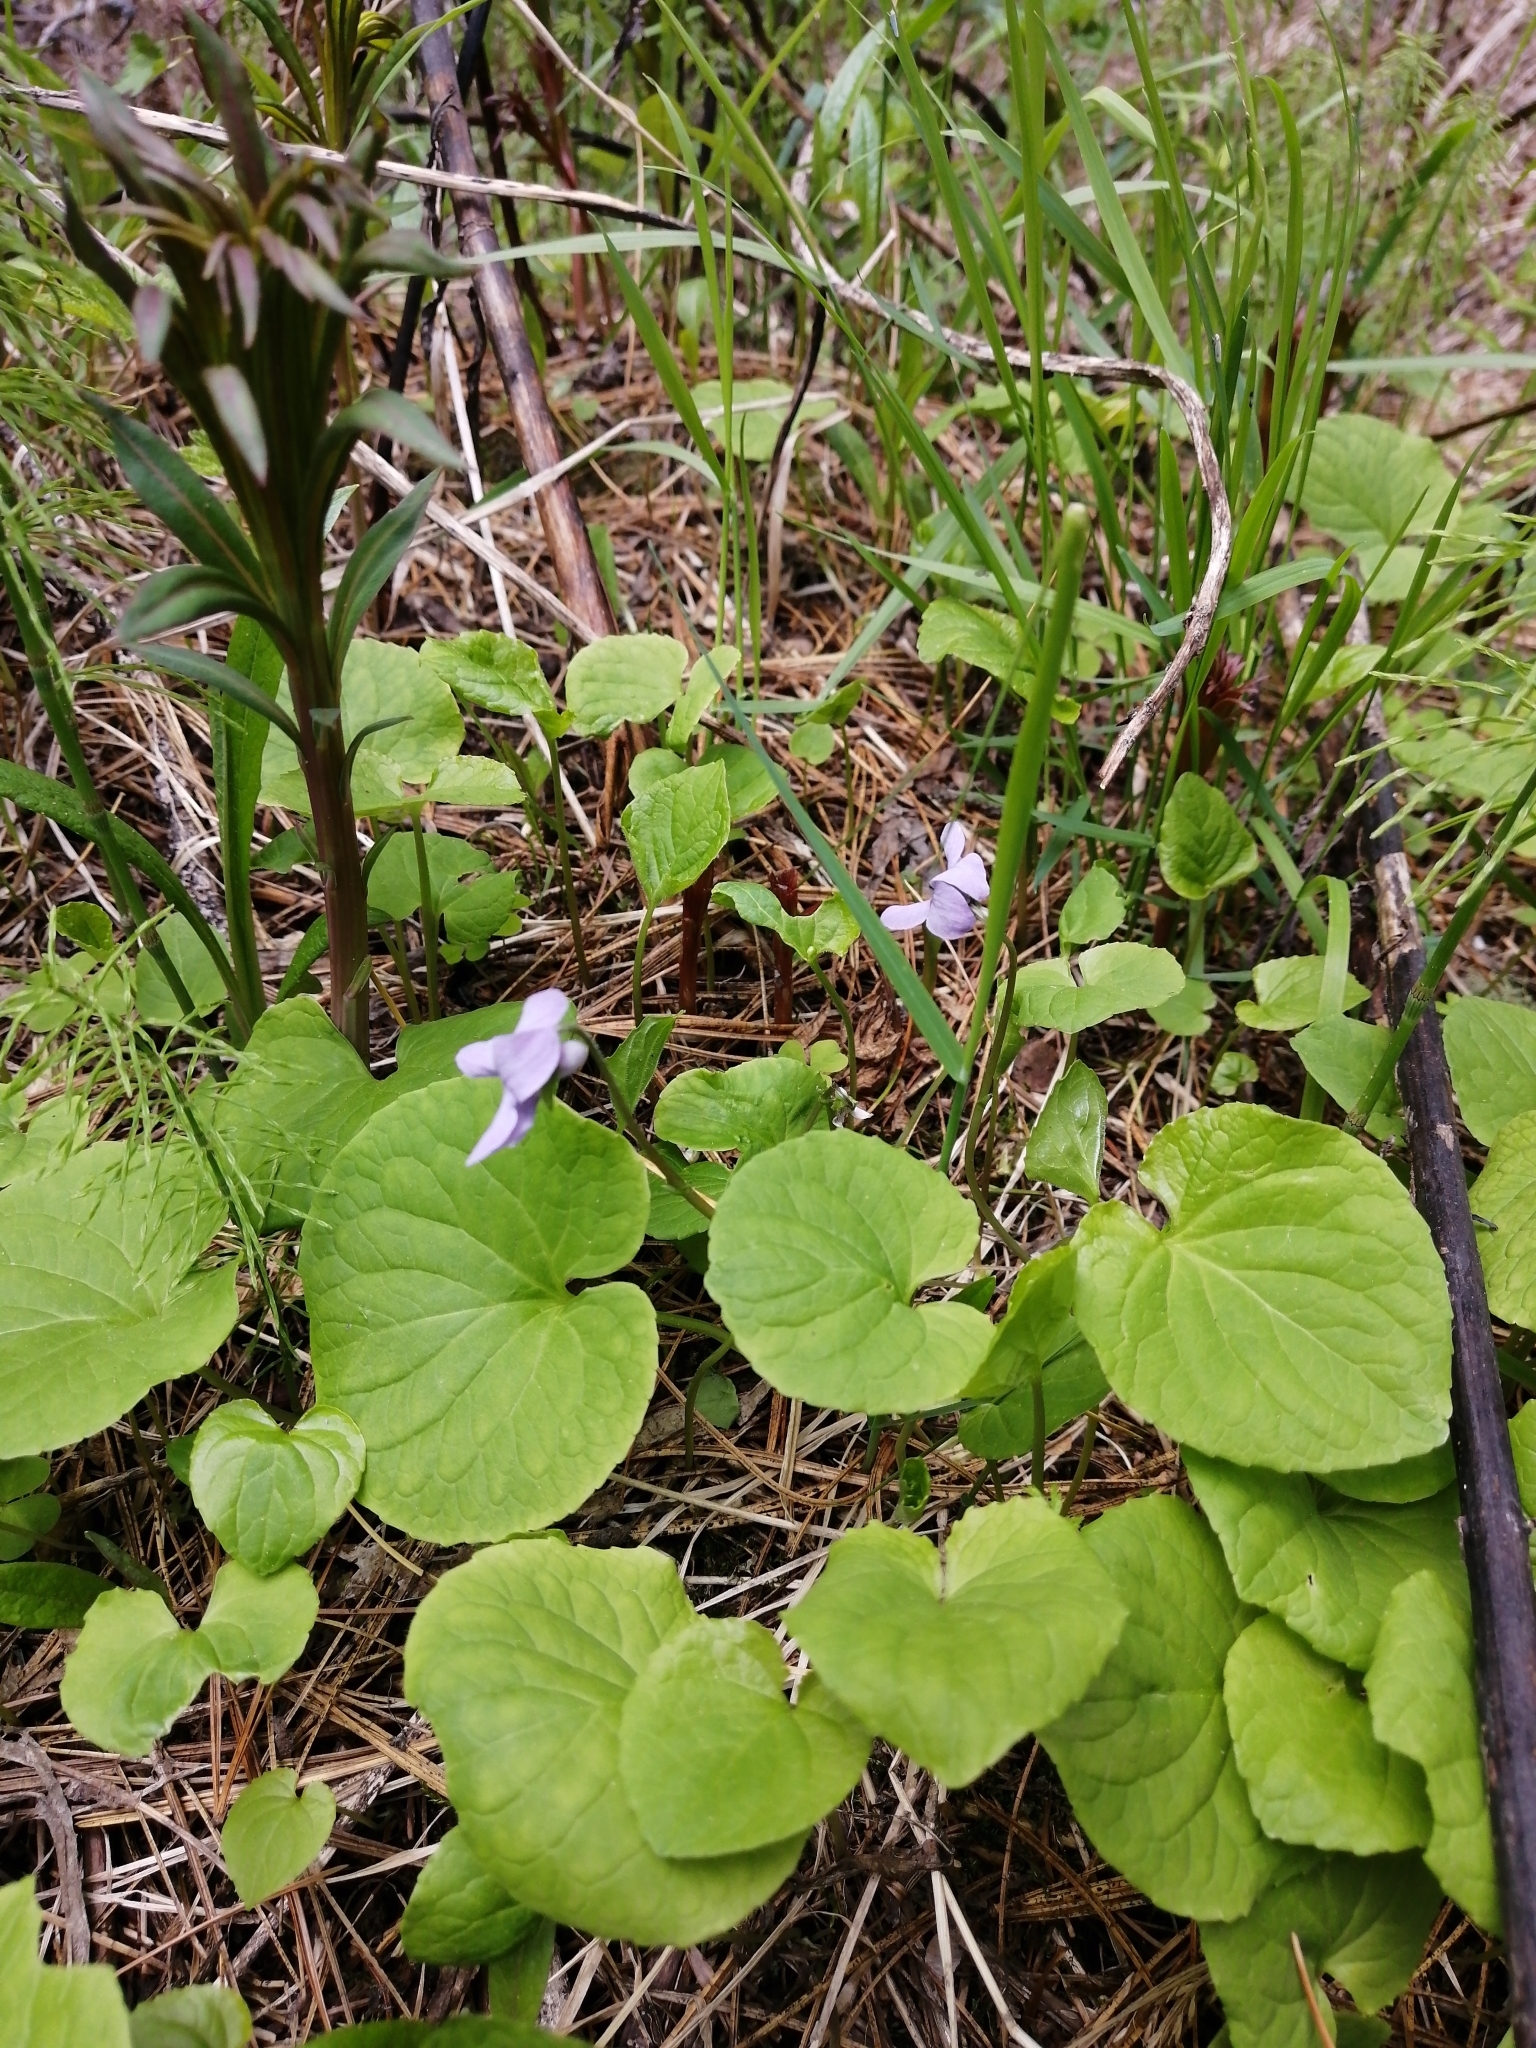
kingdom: Plantae
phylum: Tracheophyta
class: Magnoliopsida
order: Malpighiales
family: Violaceae
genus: Viola
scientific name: Viola epipsila
